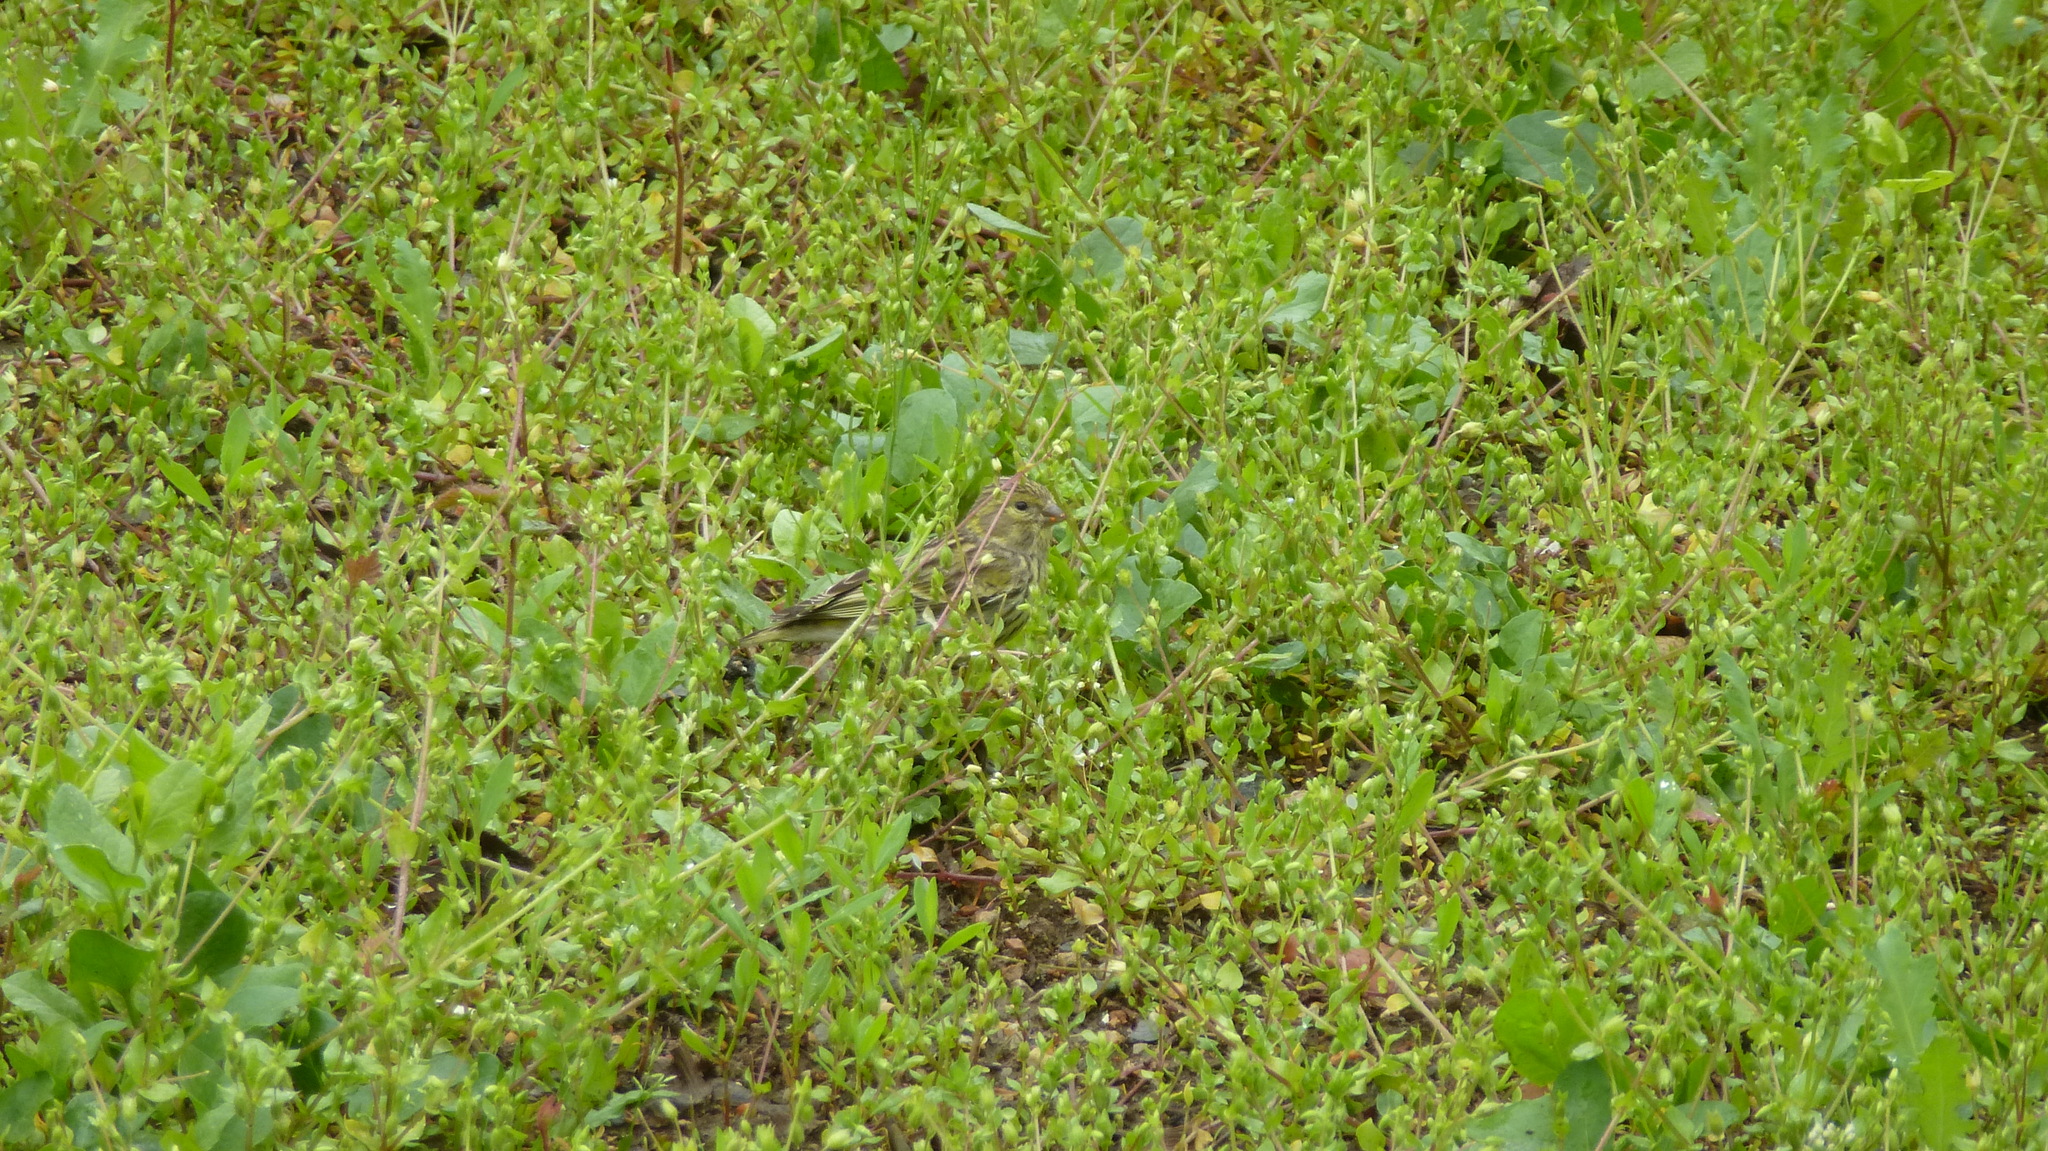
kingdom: Animalia
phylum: Chordata
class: Aves
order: Passeriformes
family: Fringillidae
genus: Serinus
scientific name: Serinus serinus
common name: European serin
